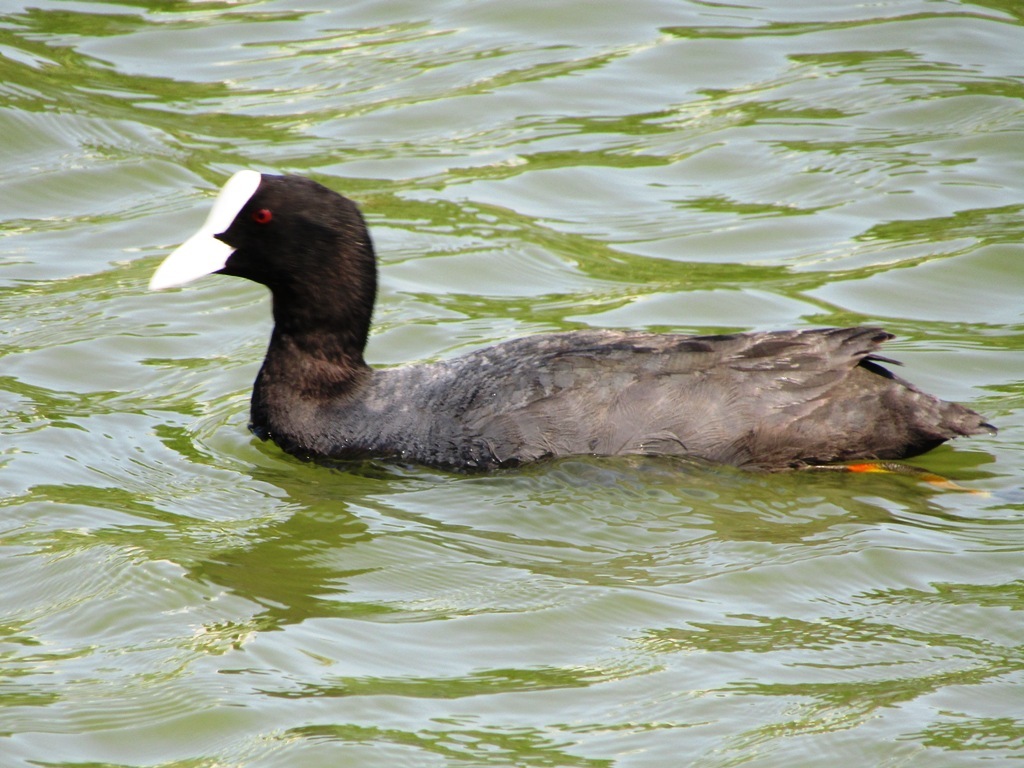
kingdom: Animalia
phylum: Chordata
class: Aves
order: Gruiformes
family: Rallidae
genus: Fulica
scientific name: Fulica atra
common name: Eurasian coot
